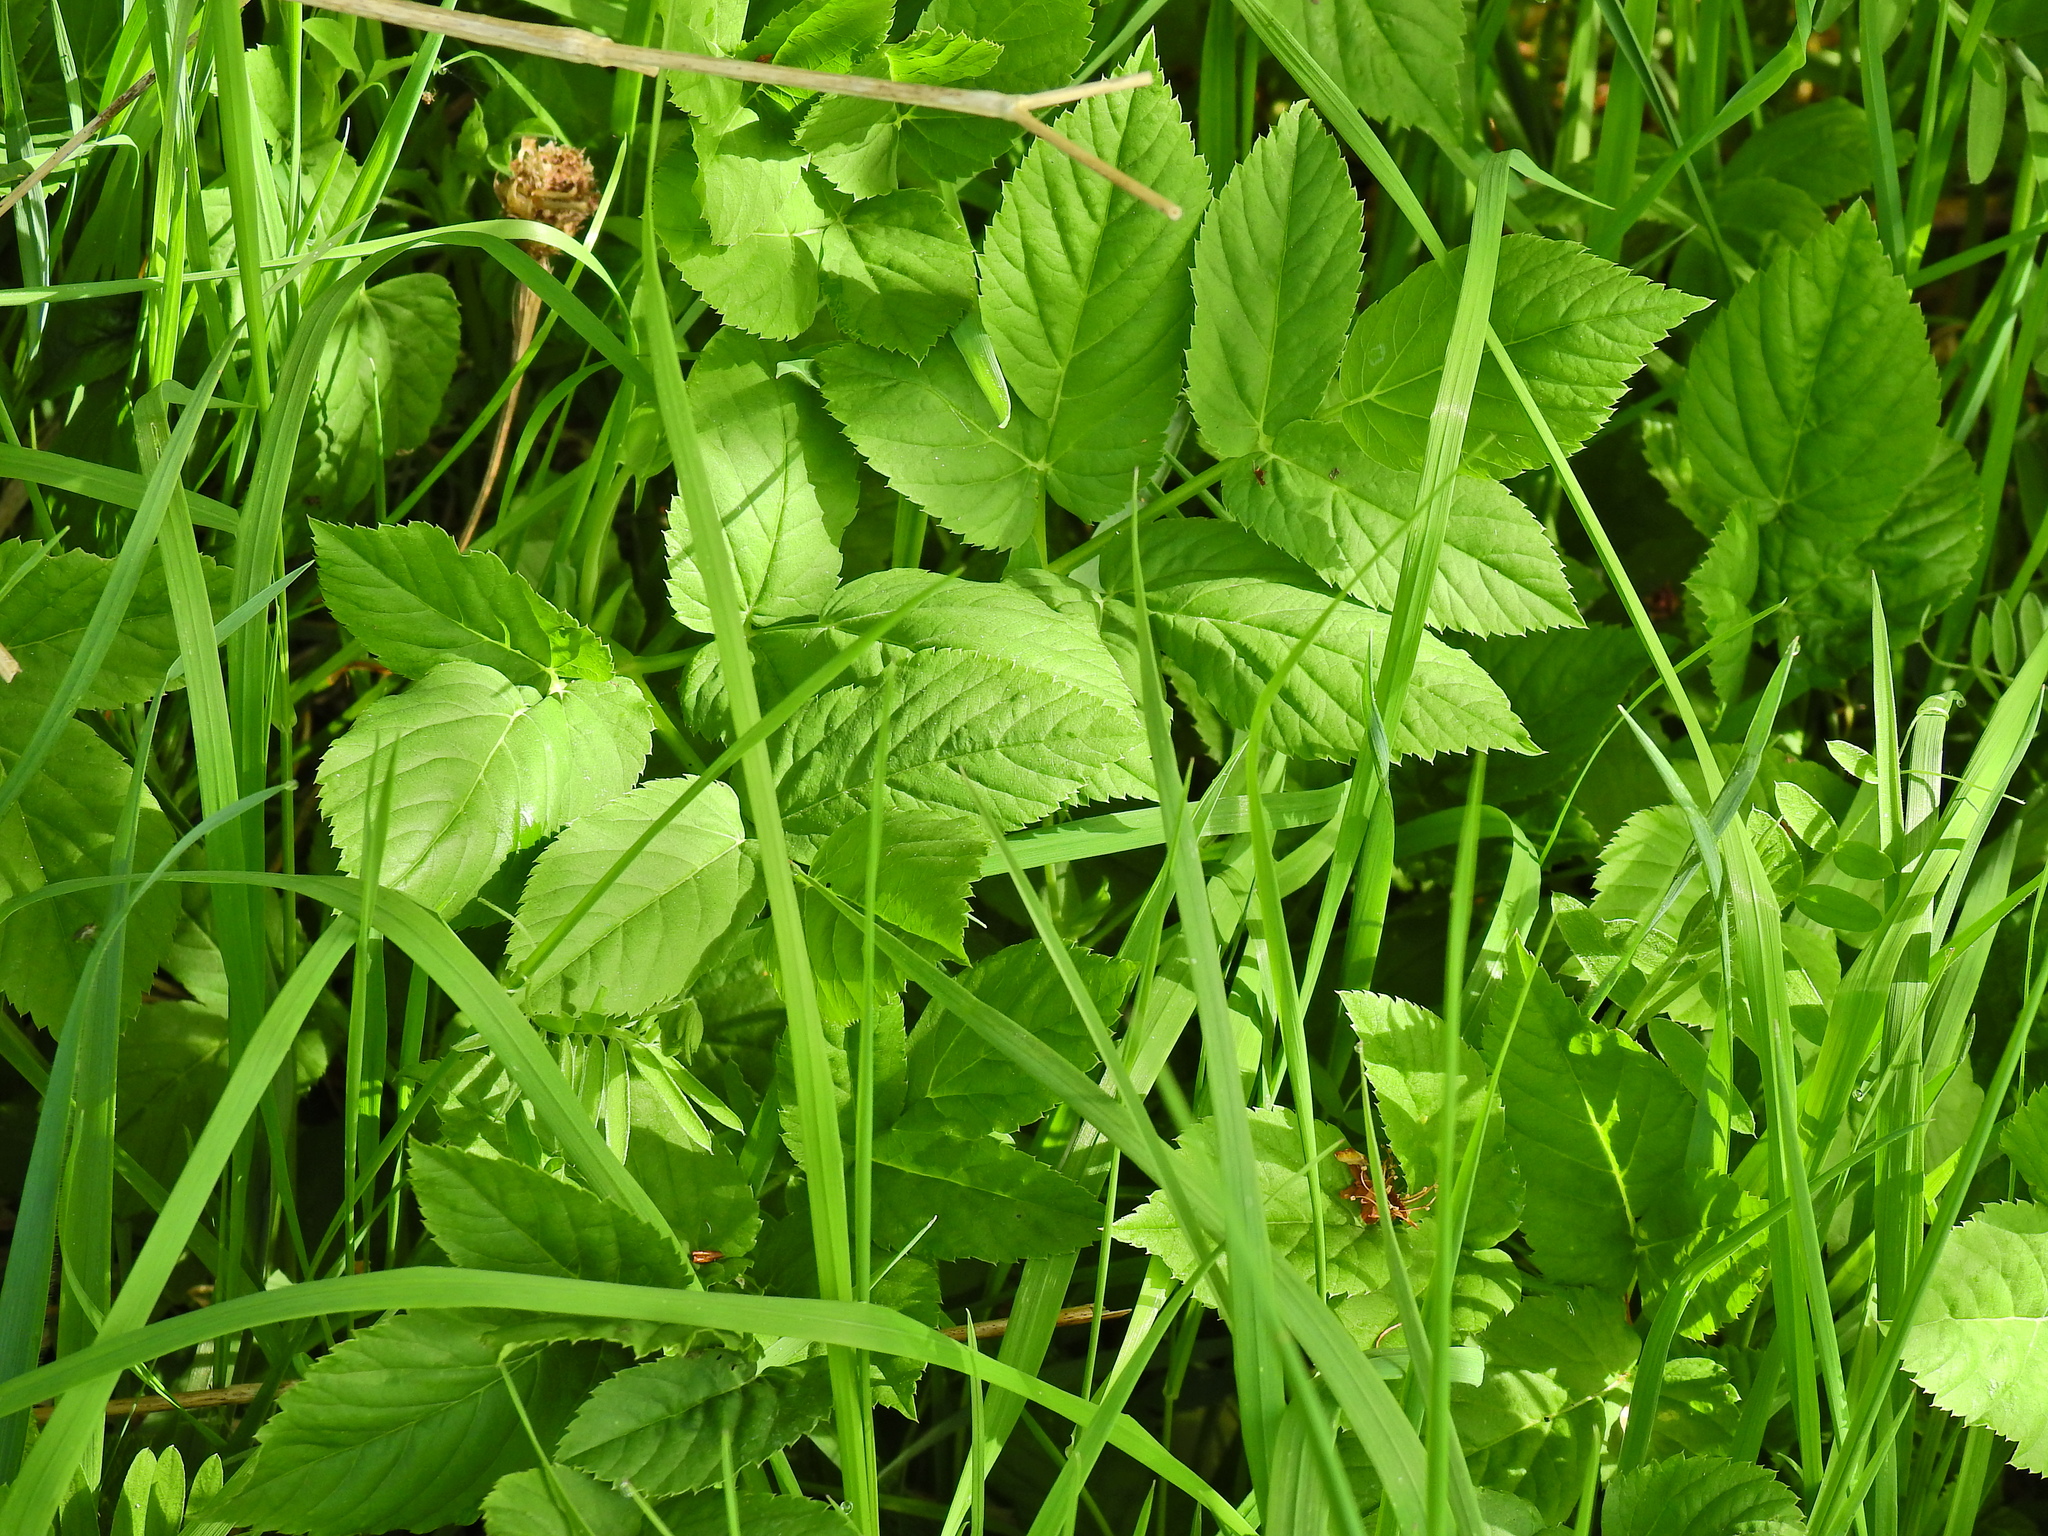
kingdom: Plantae
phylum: Tracheophyta
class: Magnoliopsida
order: Apiales
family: Apiaceae
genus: Aegopodium
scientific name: Aegopodium podagraria
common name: Ground-elder
